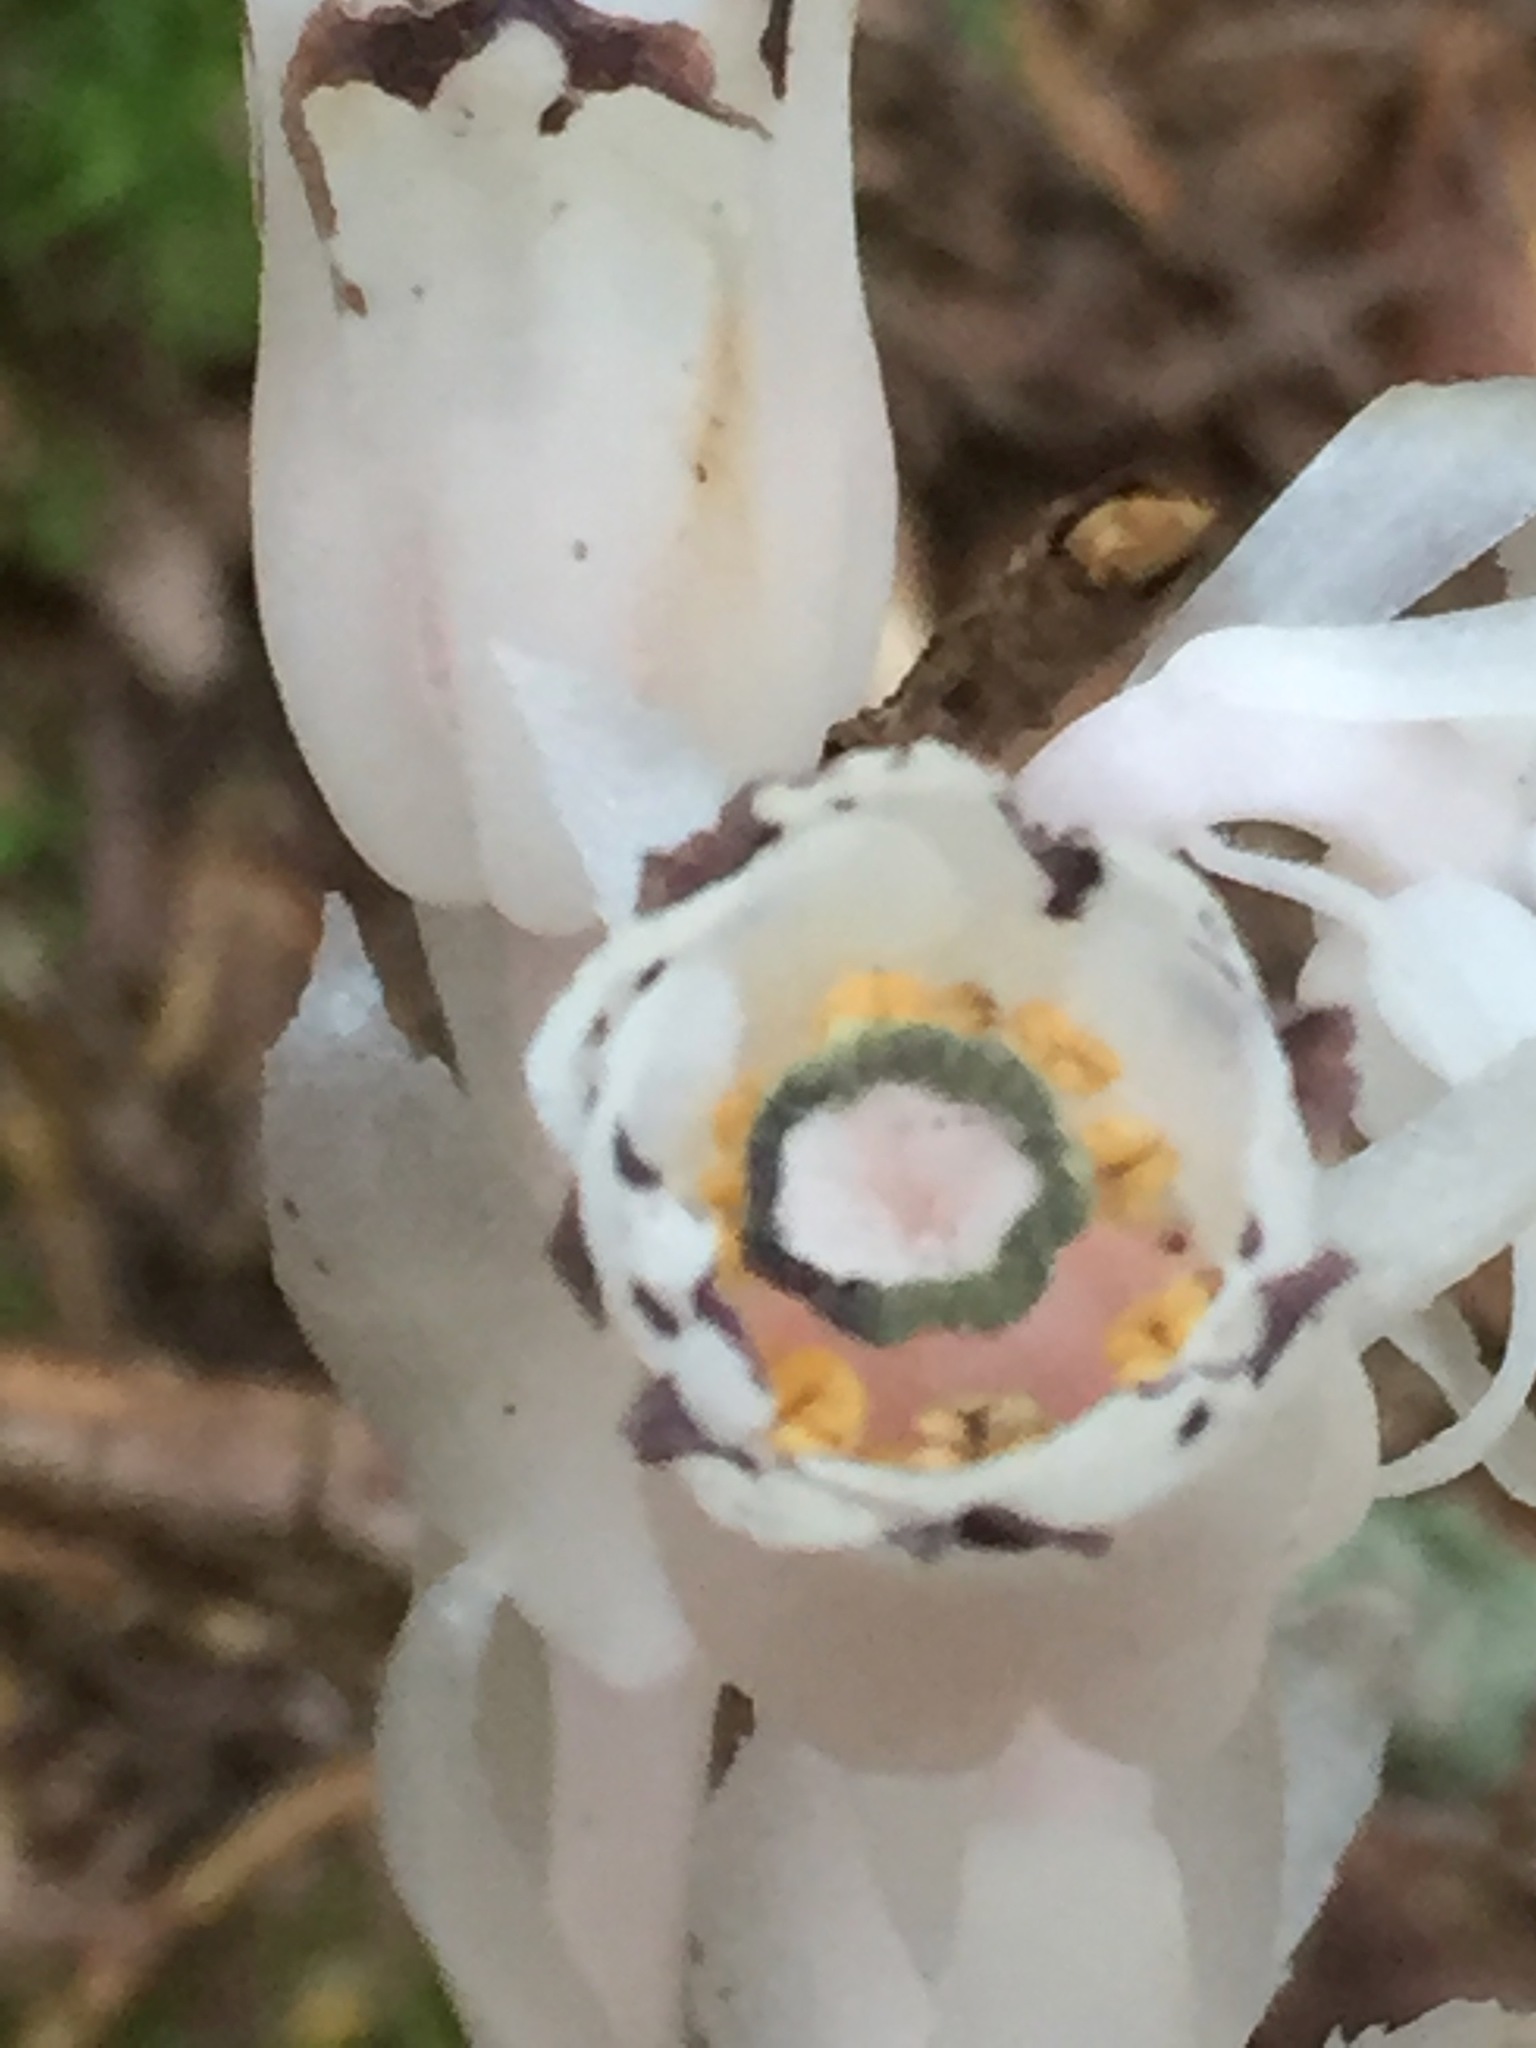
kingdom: Plantae
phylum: Tracheophyta
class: Magnoliopsida
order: Ericales
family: Ericaceae
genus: Monotropa
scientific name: Monotropa uniflora
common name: Convulsion root
